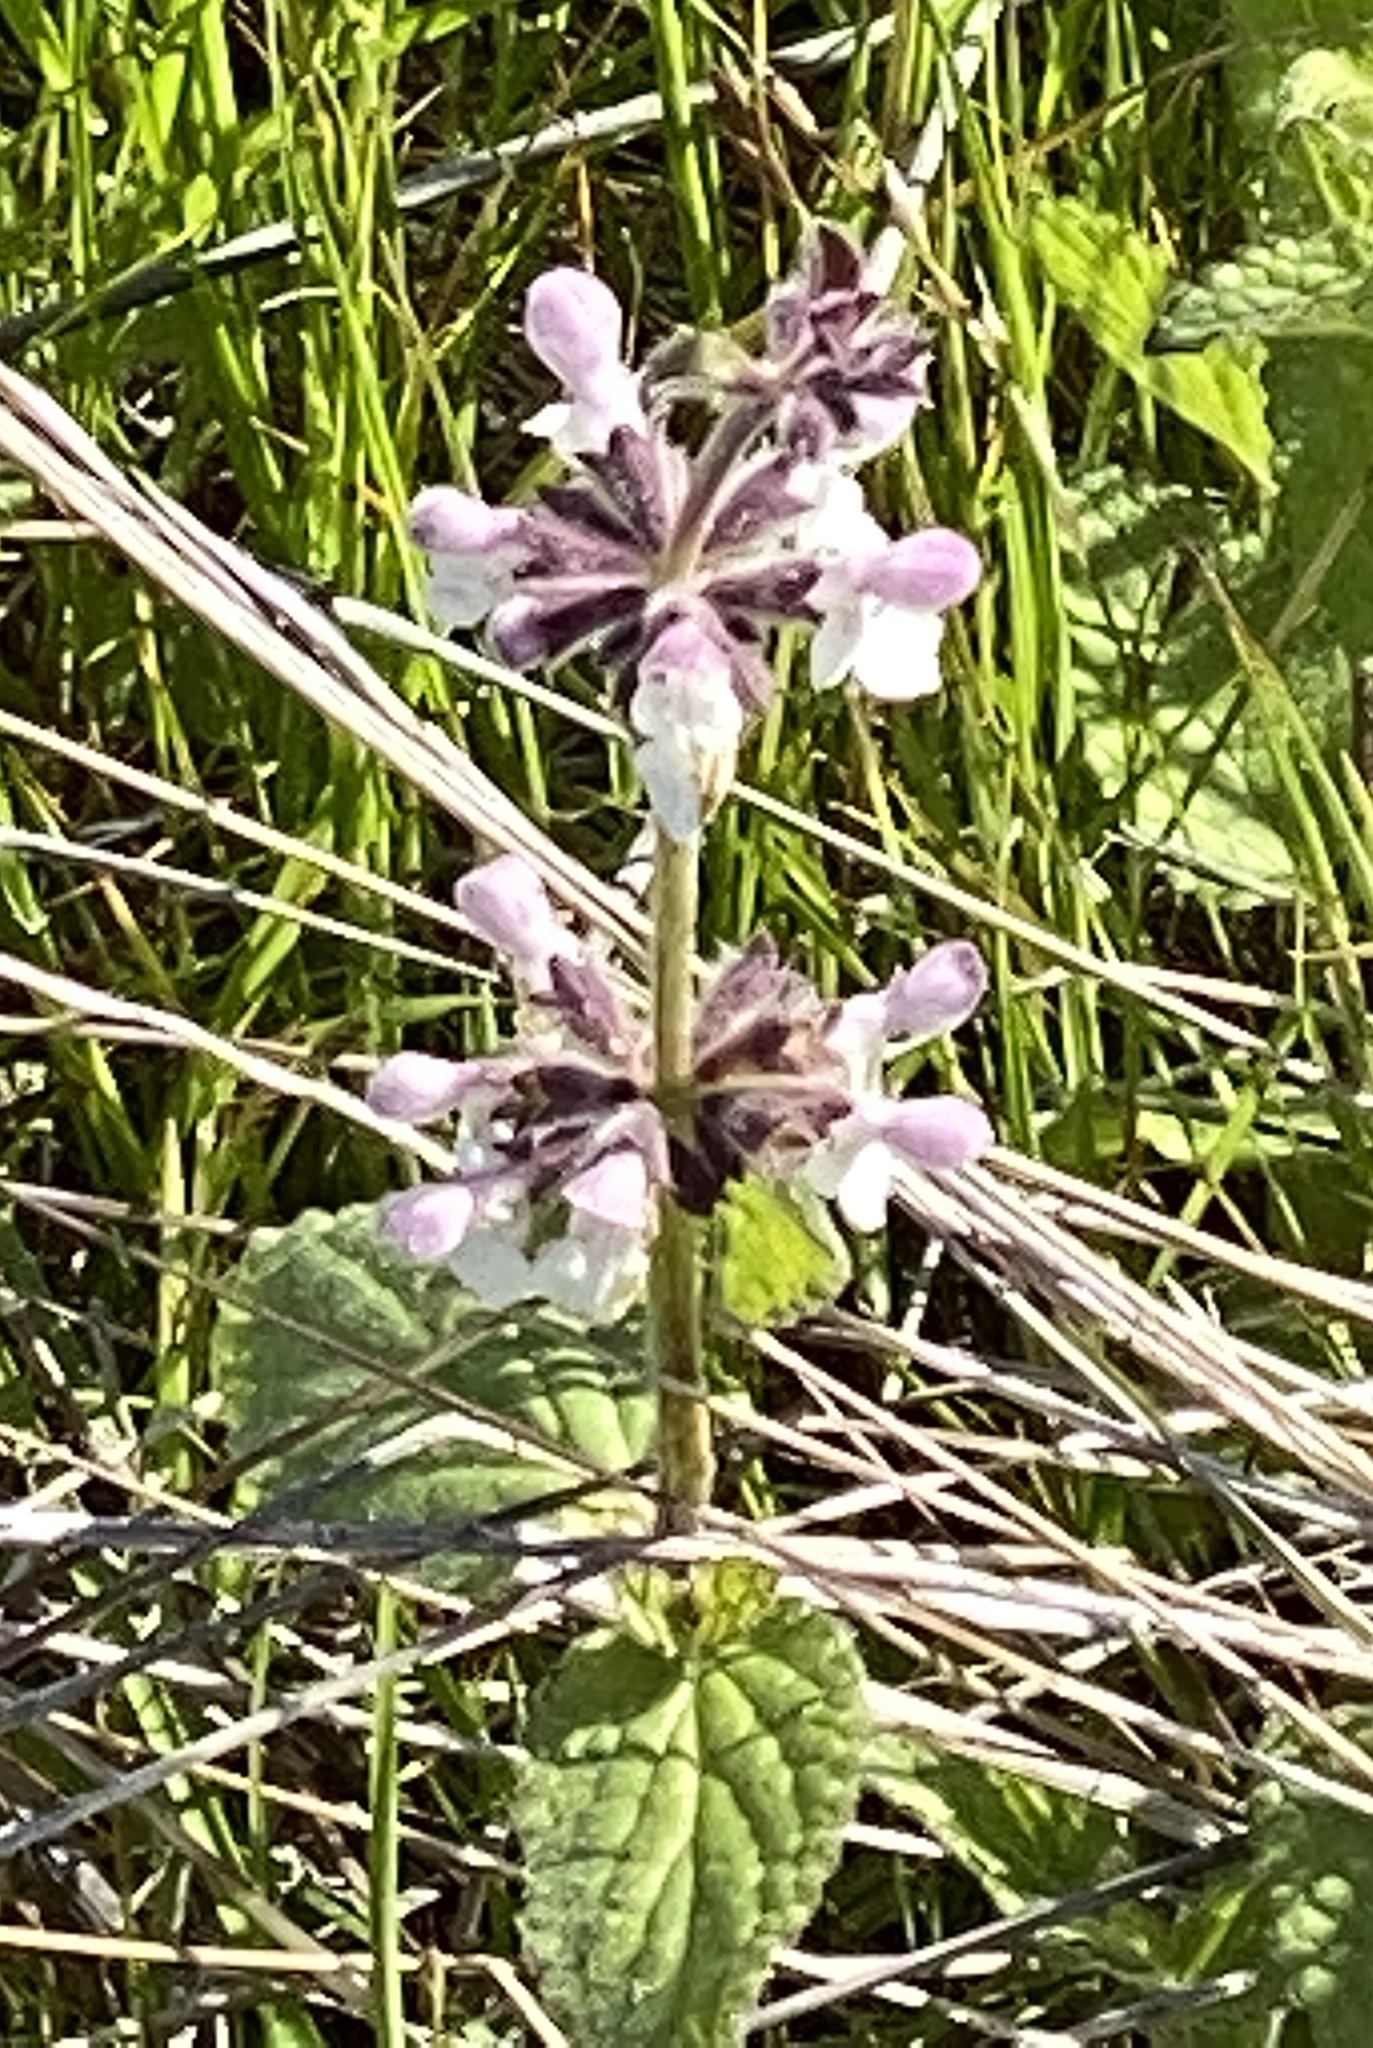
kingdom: Plantae
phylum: Tracheophyta
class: Magnoliopsida
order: Lamiales
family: Lamiaceae
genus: Stachys
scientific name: Stachys rigida
